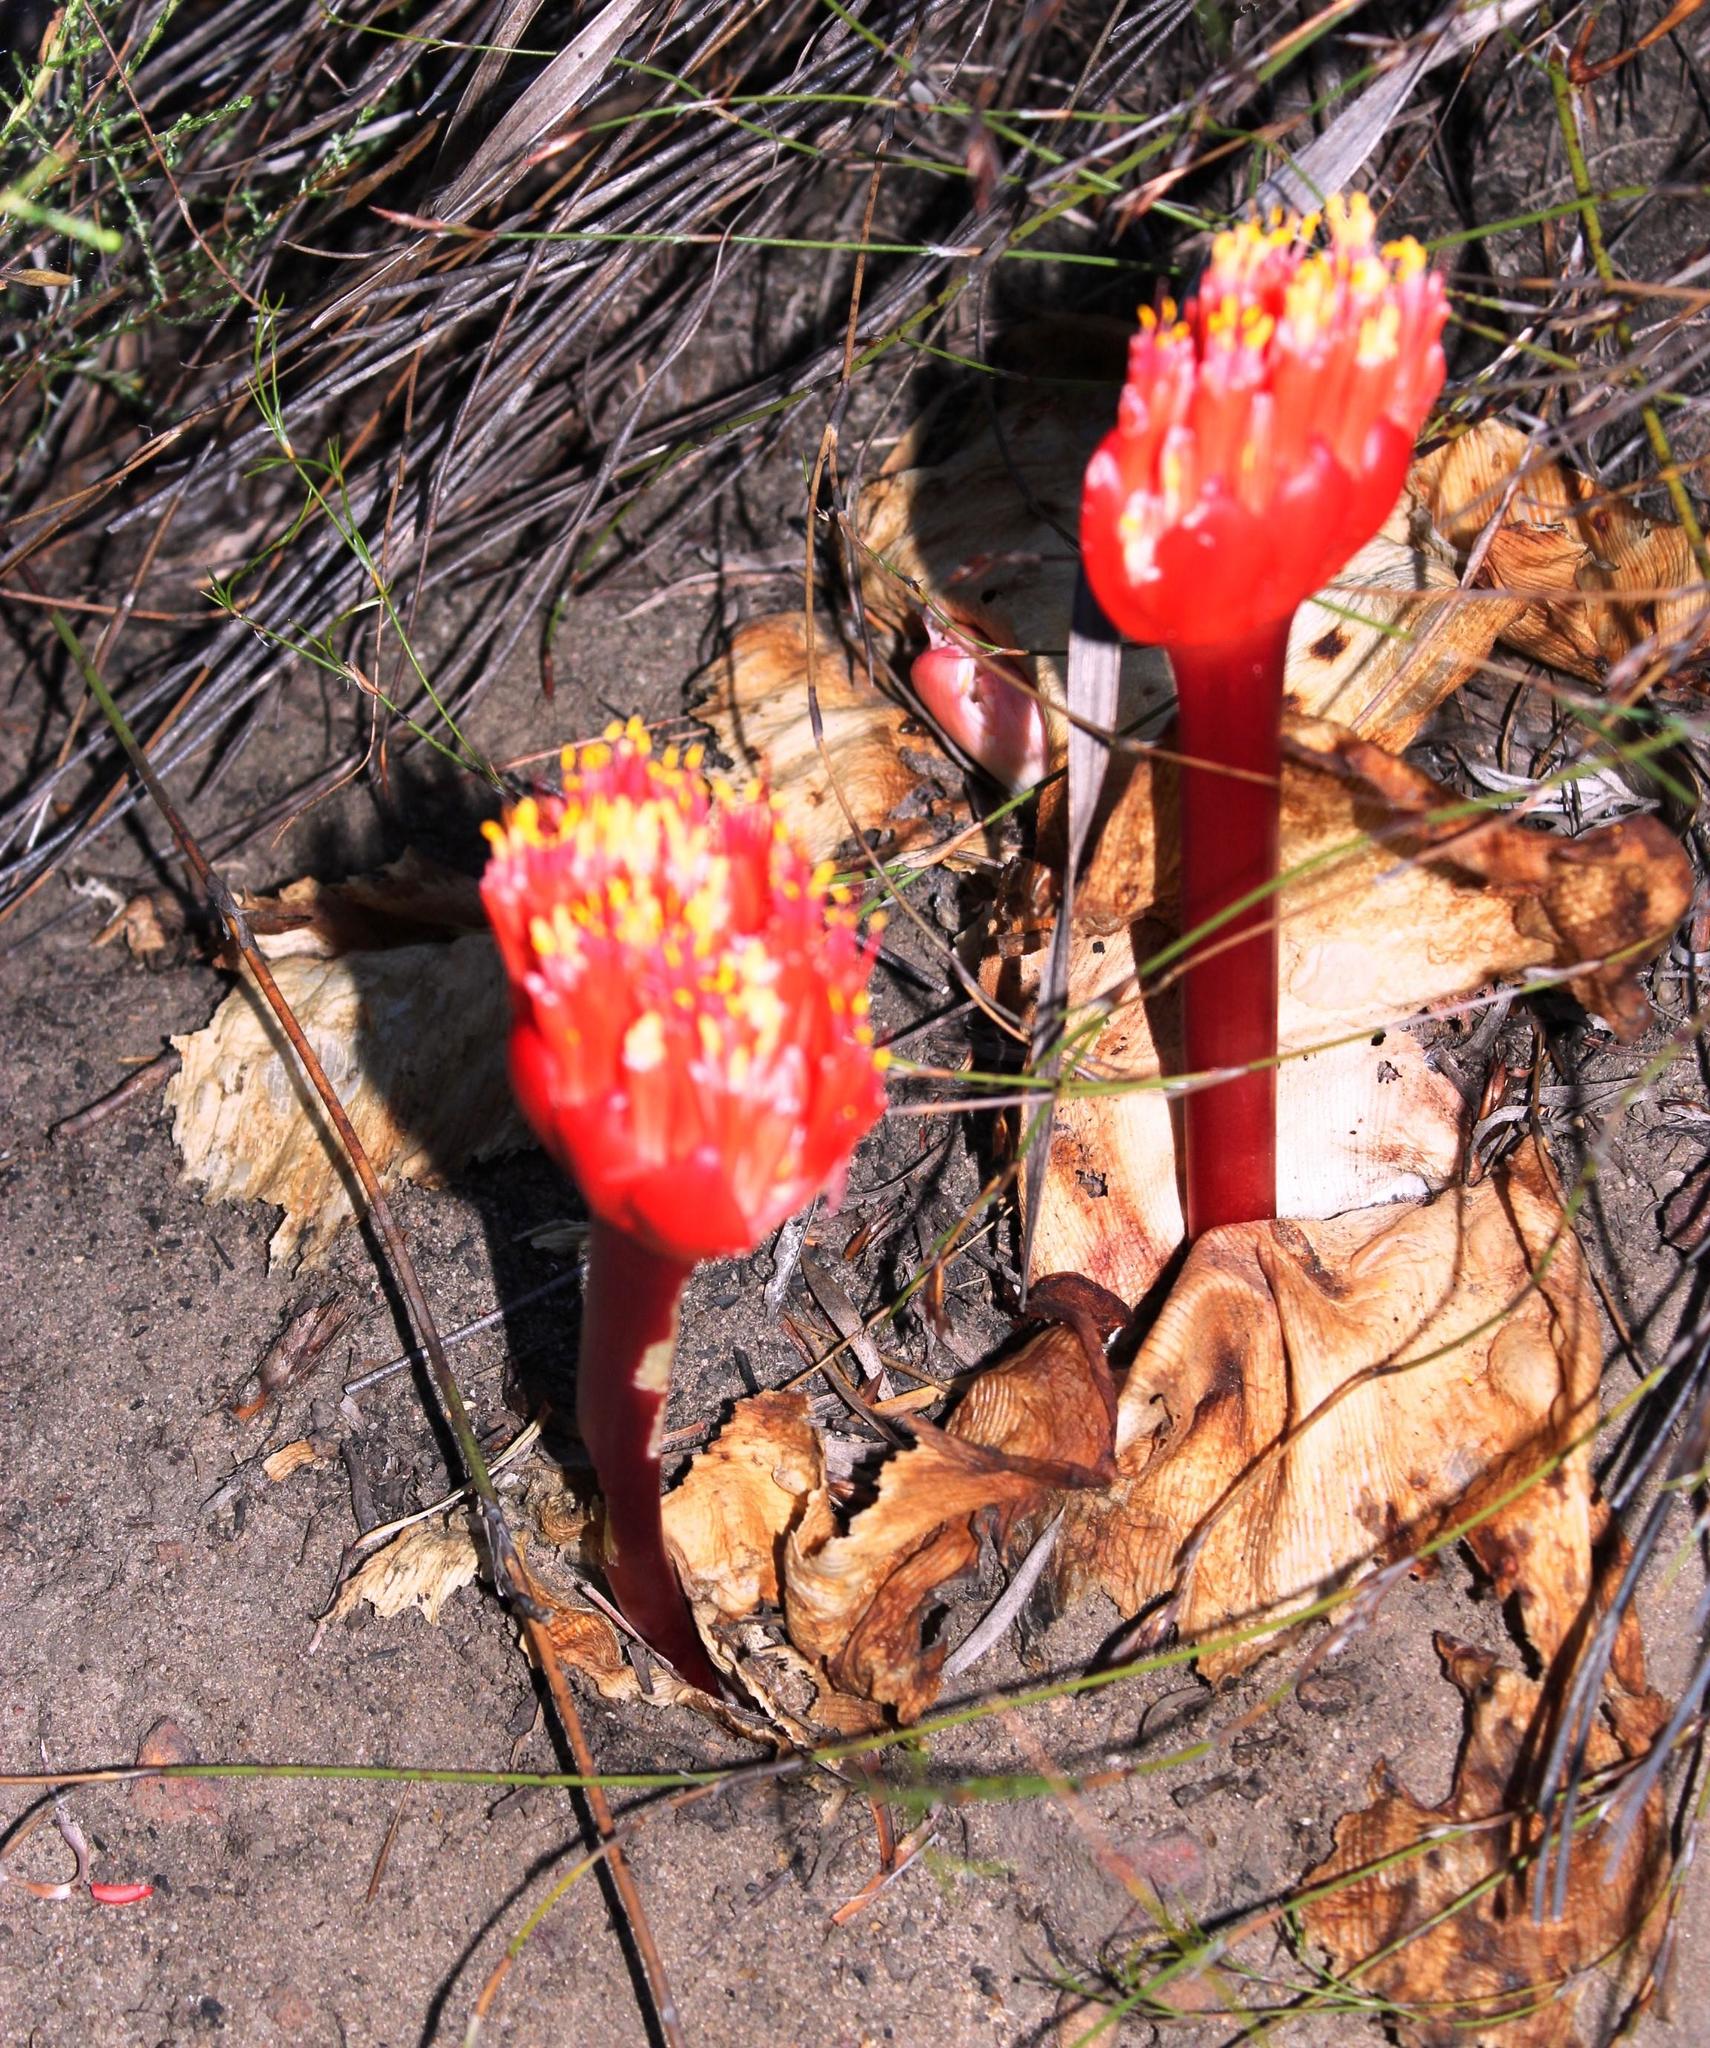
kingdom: Plantae
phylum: Tracheophyta
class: Liliopsida
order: Asparagales
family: Amaryllidaceae
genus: Haemanthus
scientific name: Haemanthus sanguineus
